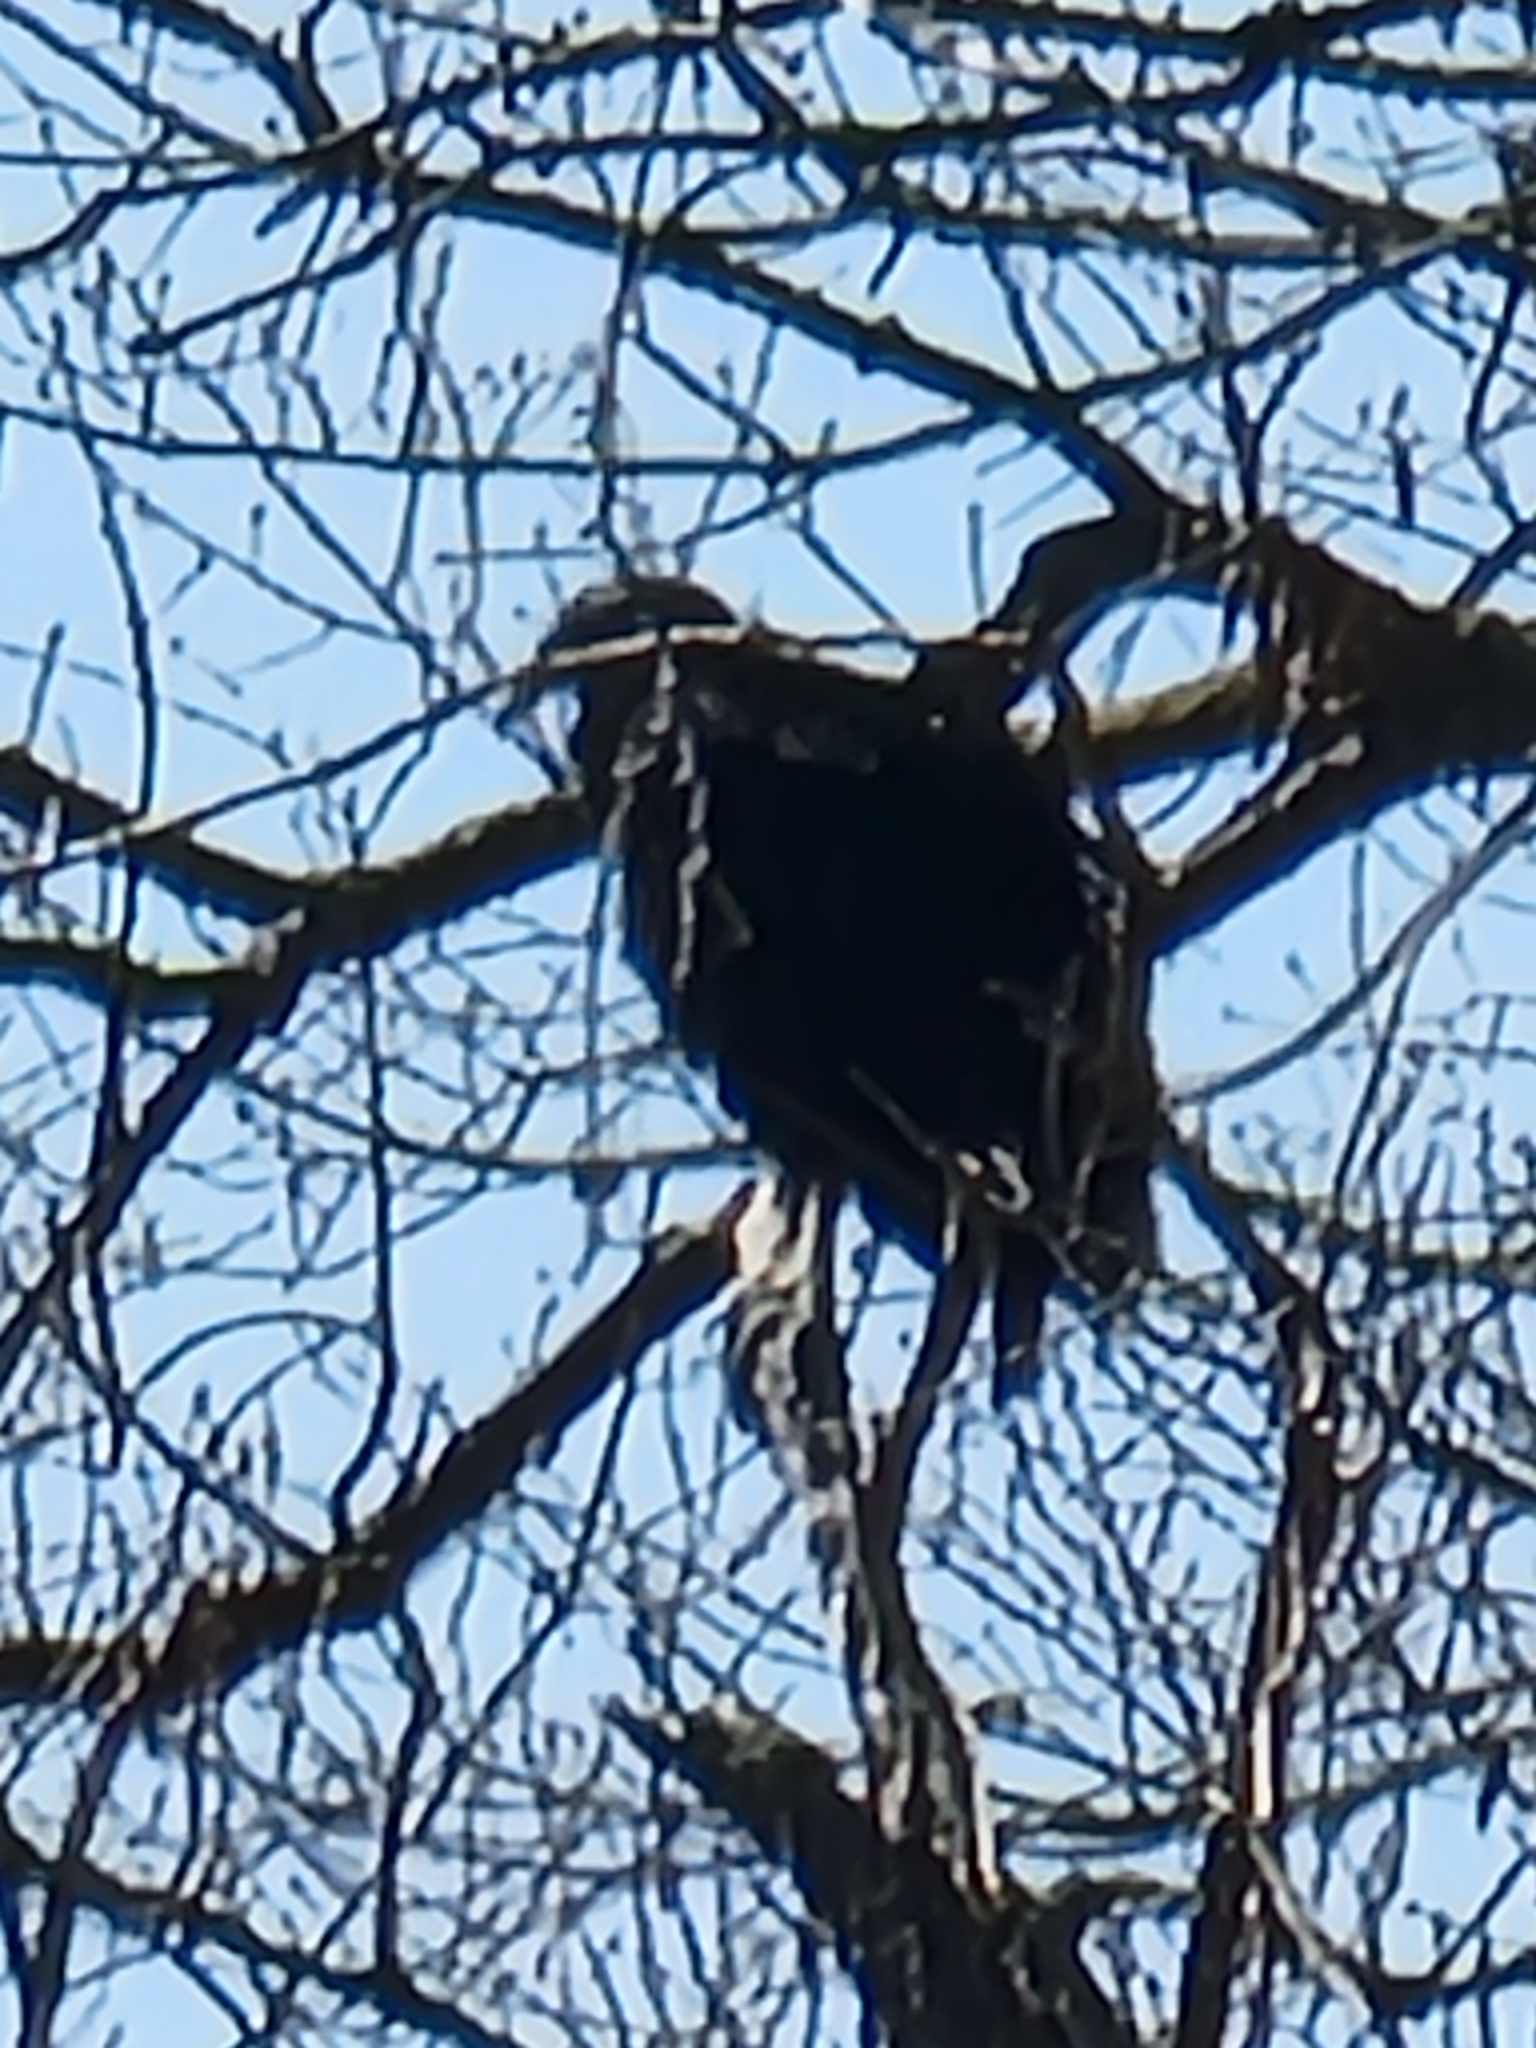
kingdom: Animalia
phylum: Chordata
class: Aves
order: Accipitriformes
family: Cathartidae
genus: Coragyps
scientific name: Coragyps atratus
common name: Black vulture
